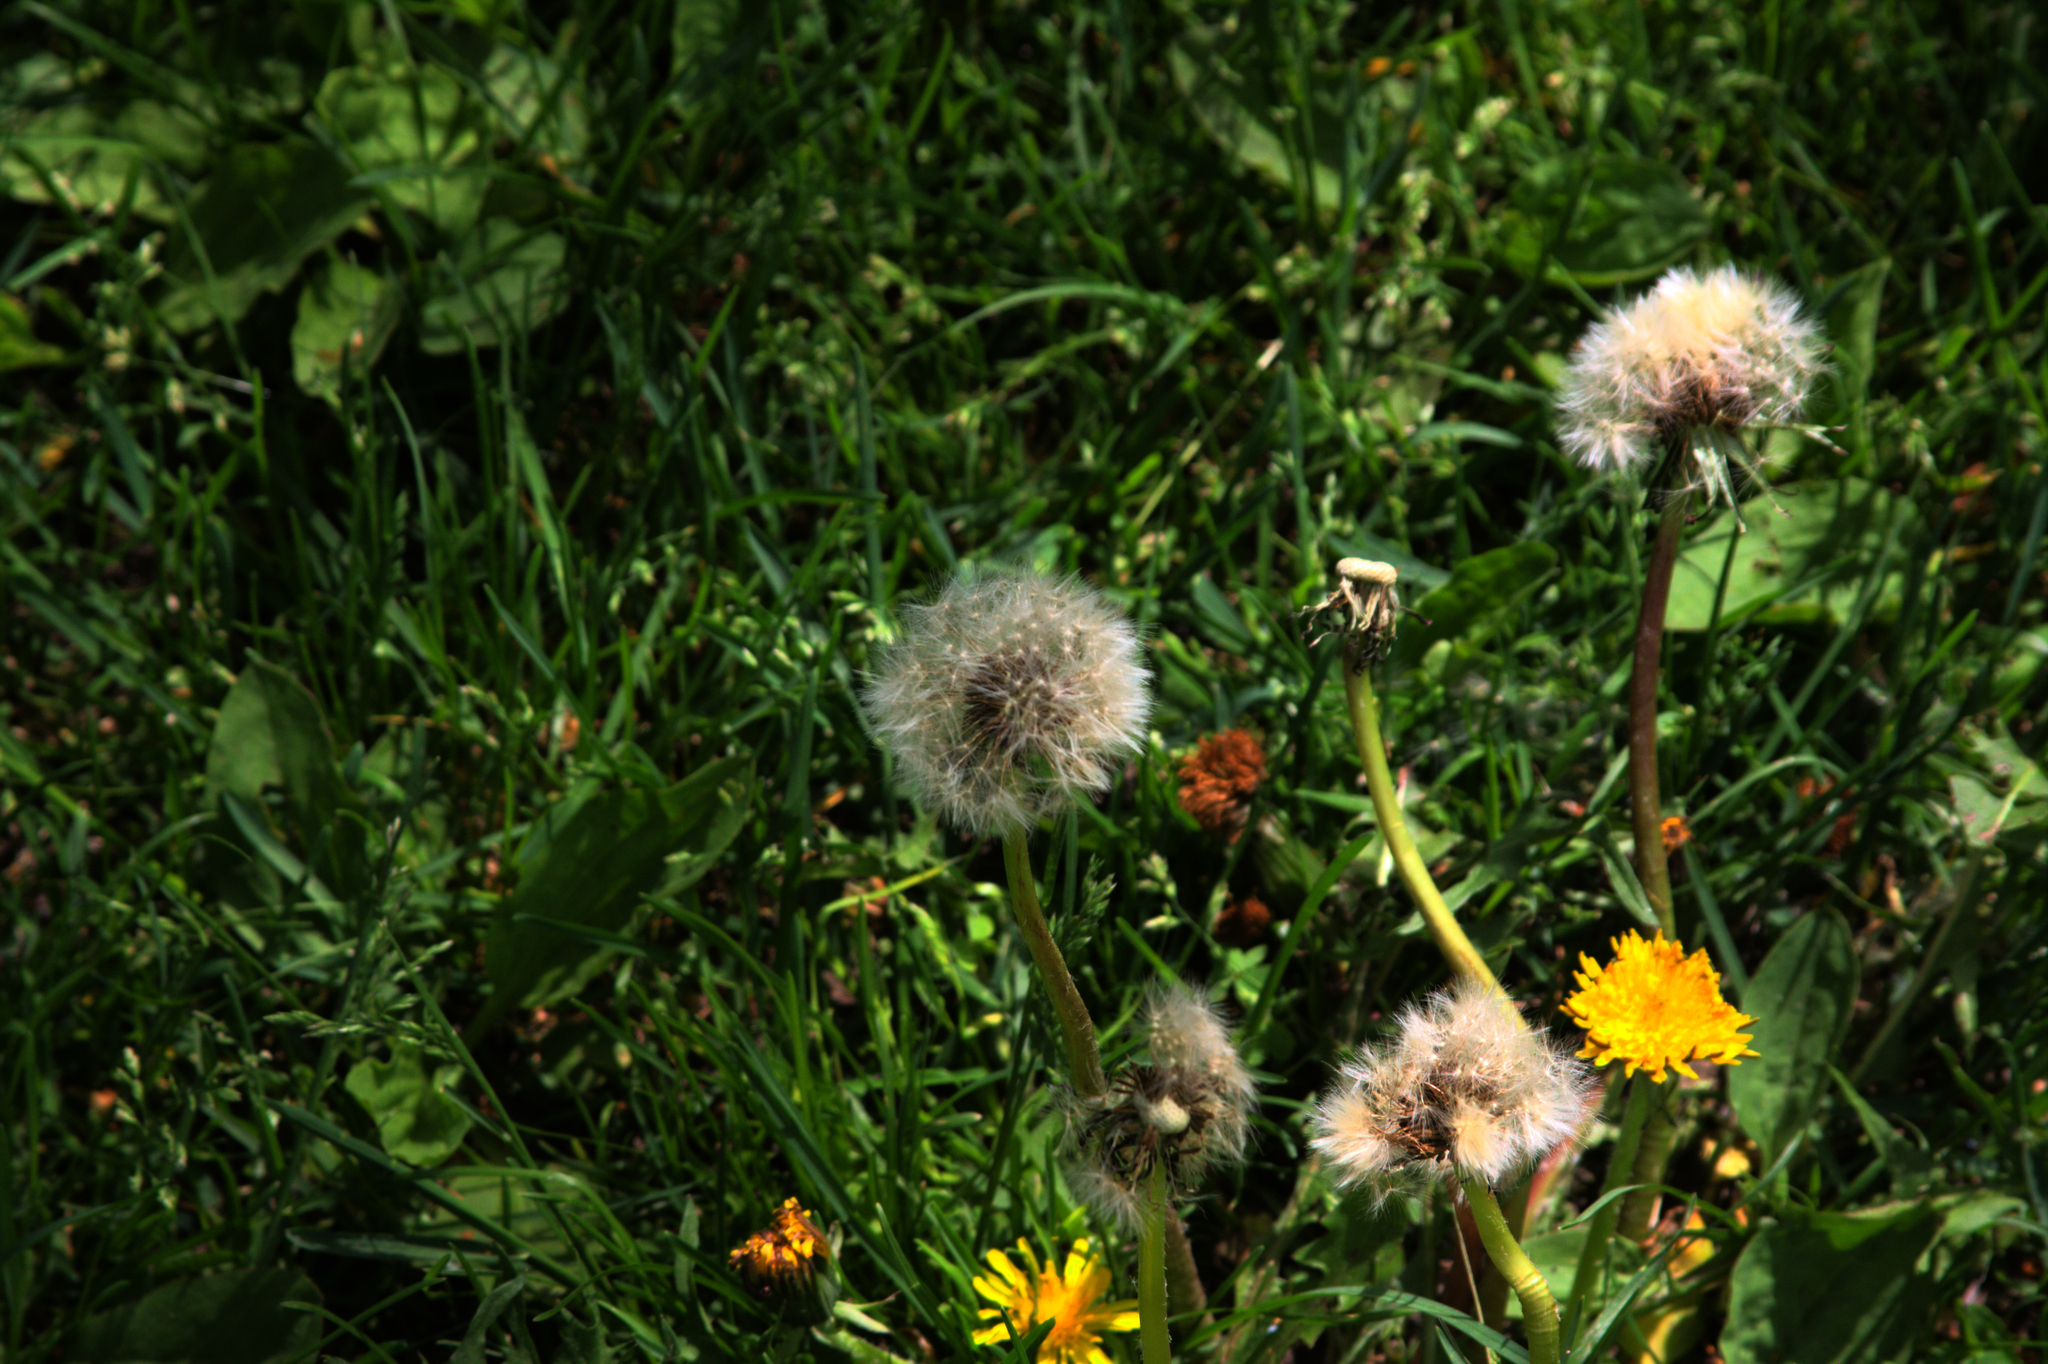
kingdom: Plantae
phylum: Tracheophyta
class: Magnoliopsida
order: Asterales
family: Asteraceae
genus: Taraxacum
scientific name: Taraxacum officinale
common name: Common dandelion
